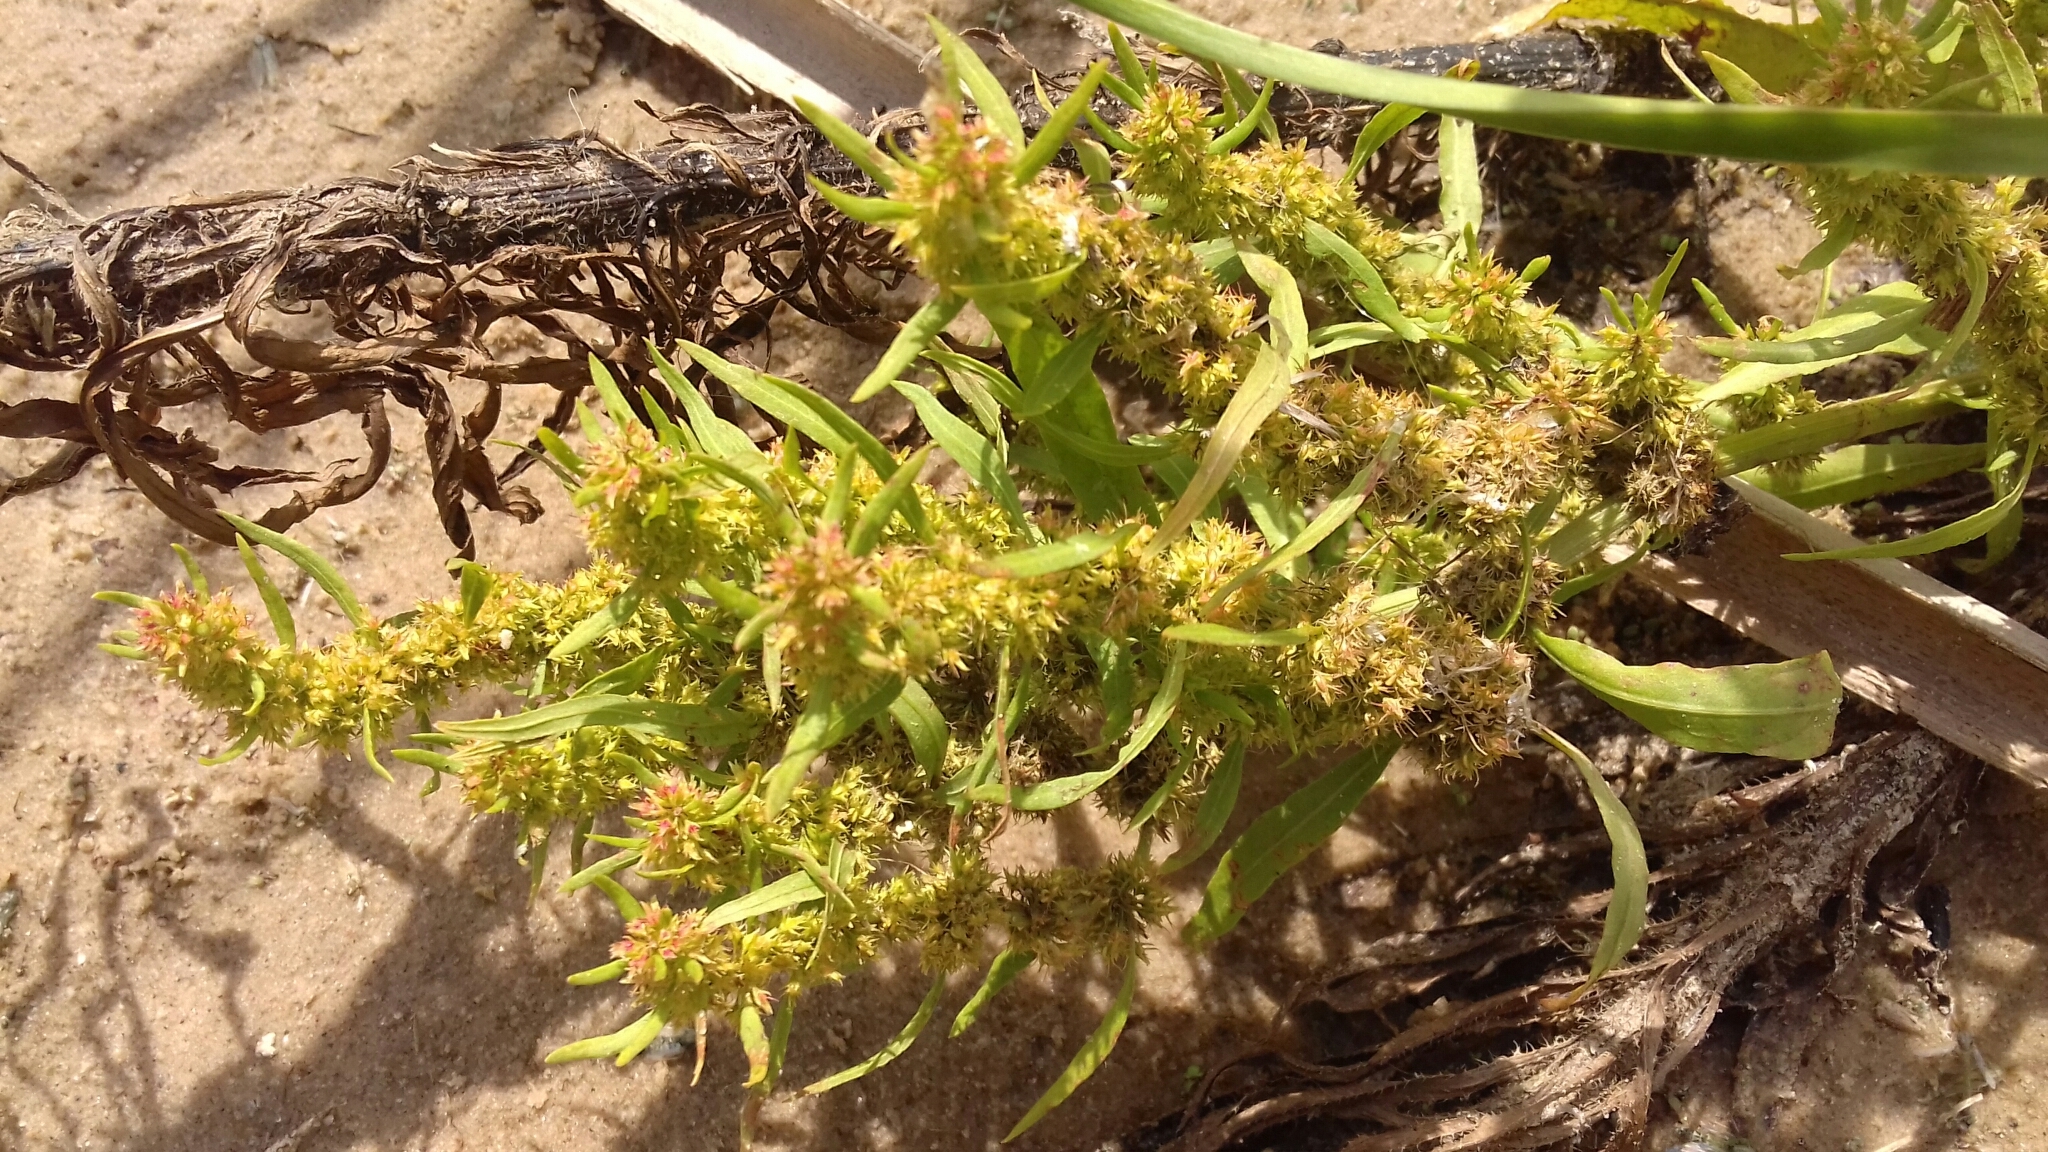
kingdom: Plantae
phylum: Tracheophyta
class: Magnoliopsida
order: Caryophyllales
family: Polygonaceae
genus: Rumex
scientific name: Rumex maritimus
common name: Golden dock
